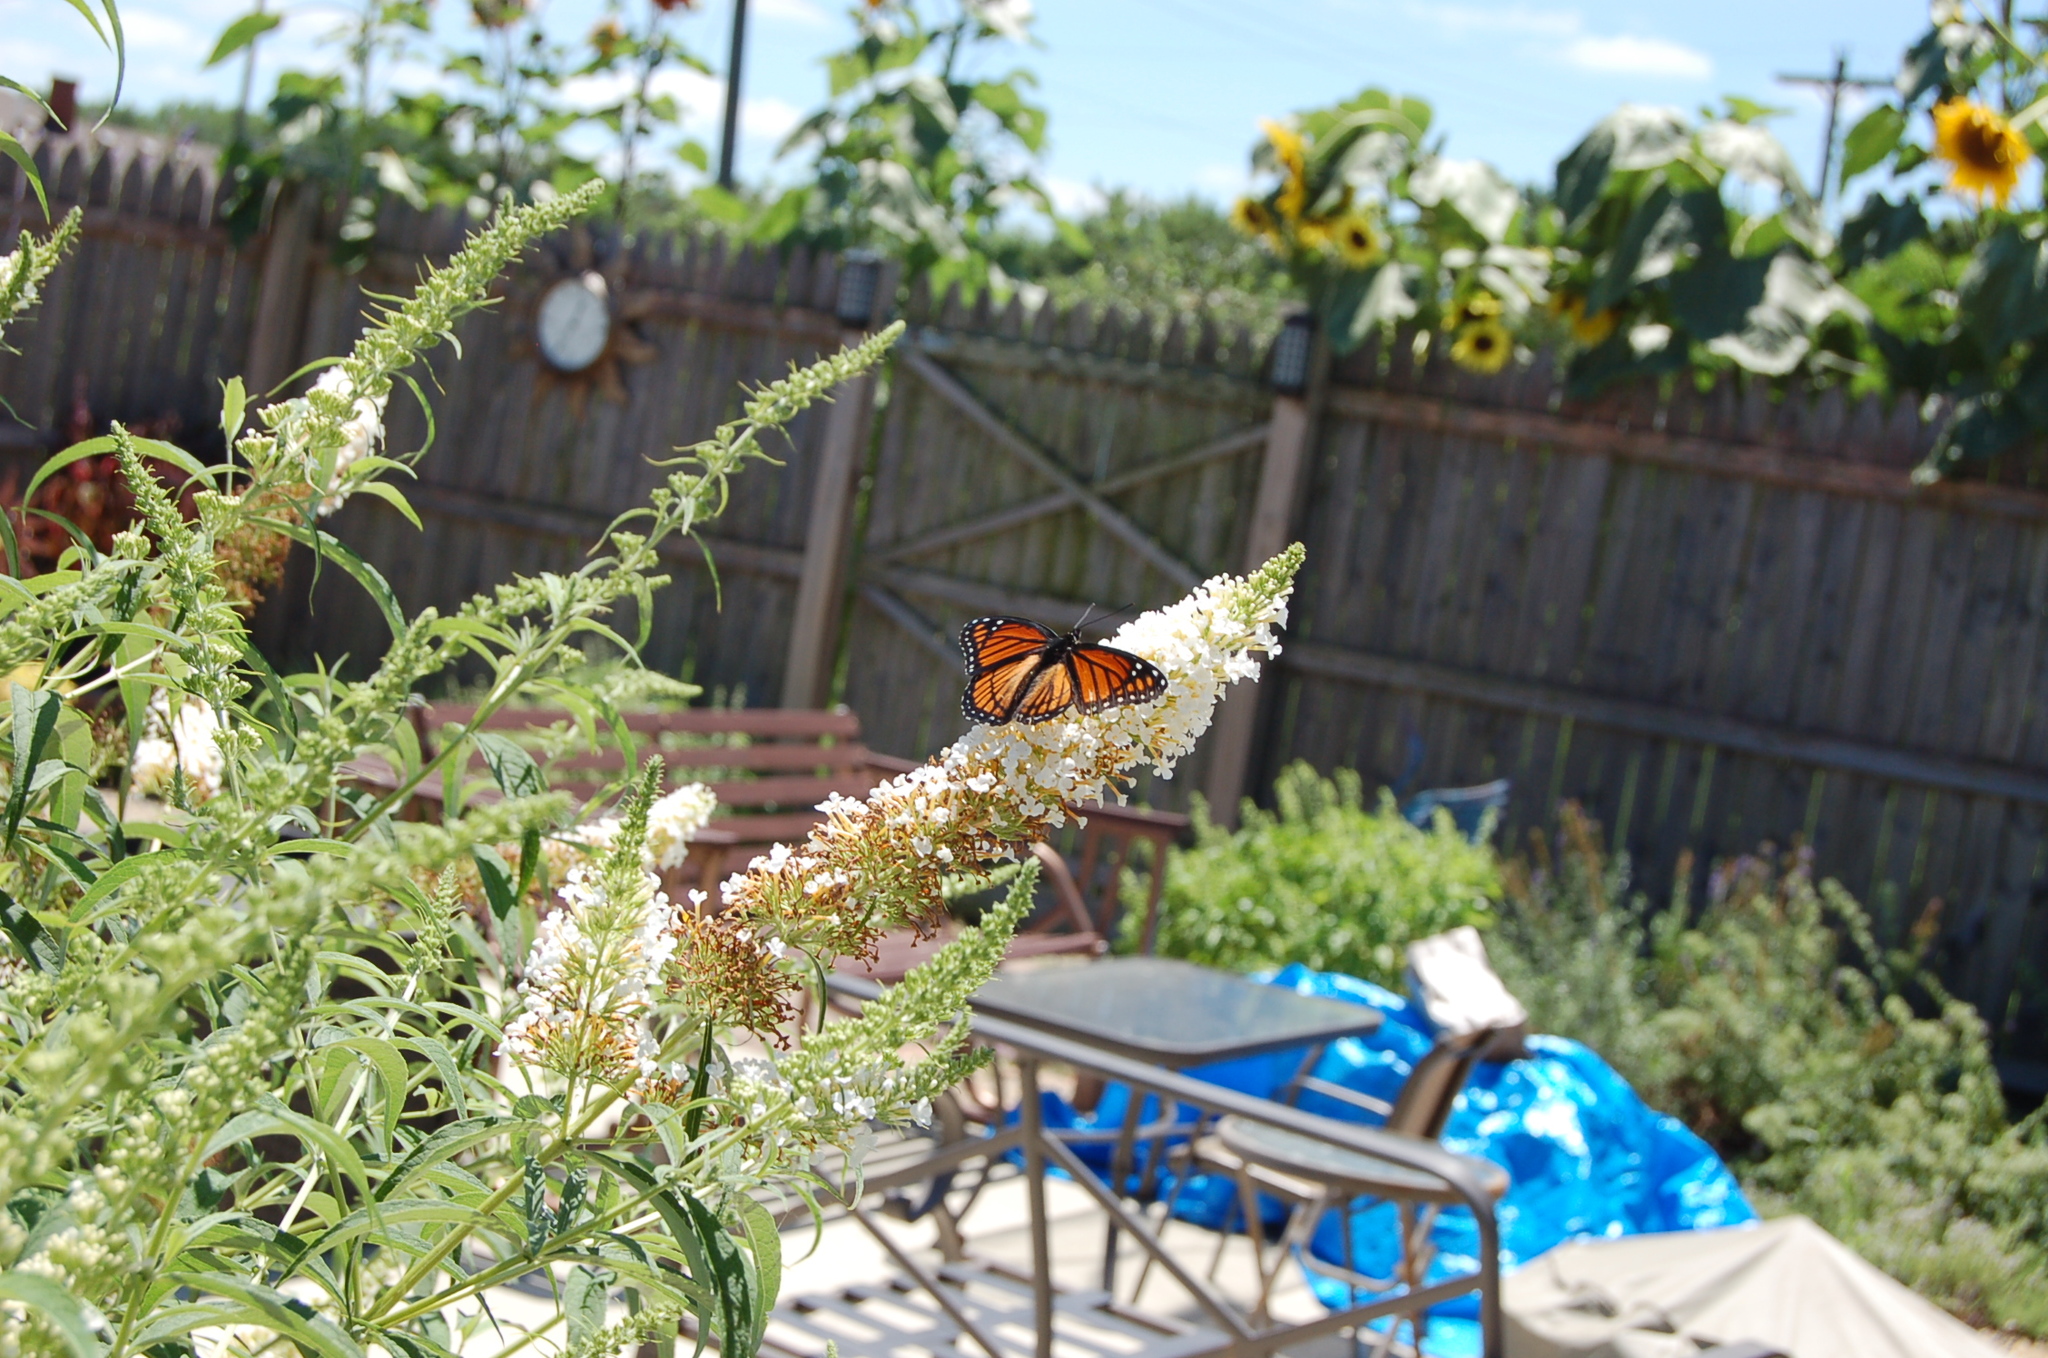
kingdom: Animalia
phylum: Arthropoda
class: Insecta
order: Lepidoptera
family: Nymphalidae
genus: Limenitis
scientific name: Limenitis archippus
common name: Viceroy
